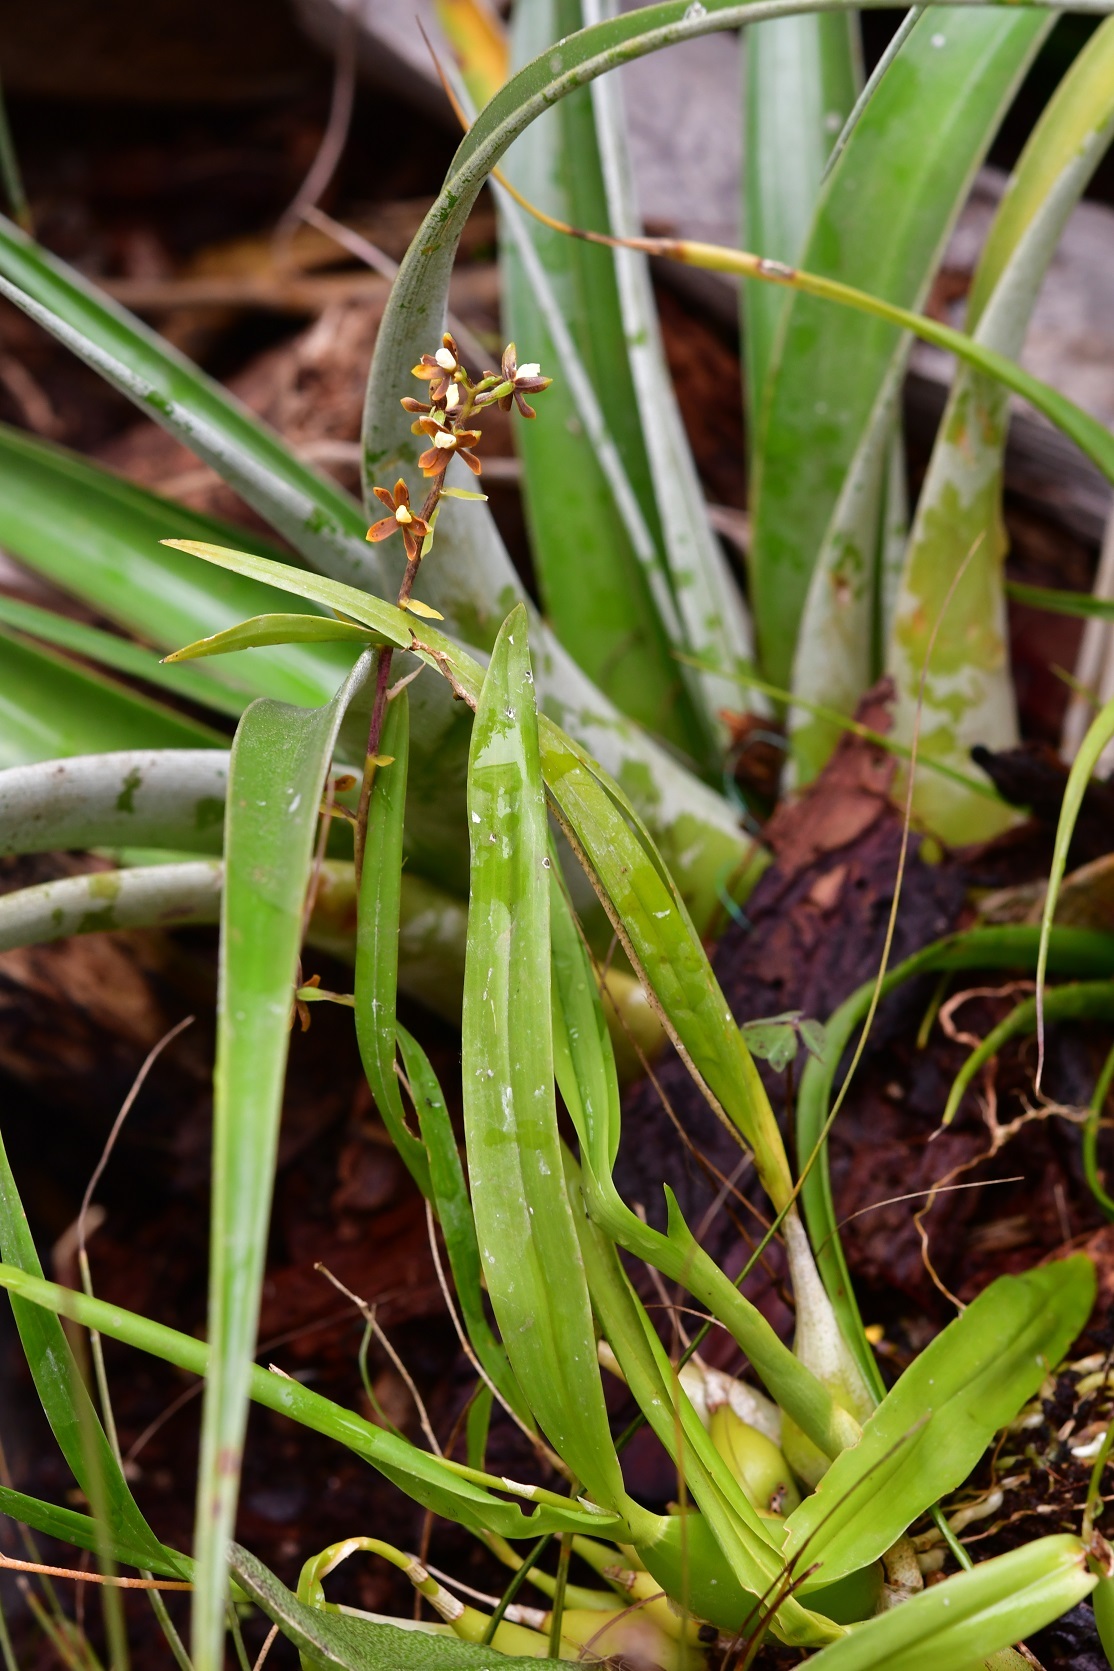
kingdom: Plantae
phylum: Tracheophyta
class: Liliopsida
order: Asparagales
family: Orchidaceae
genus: Prosthechea
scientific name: Prosthechea ochracea
